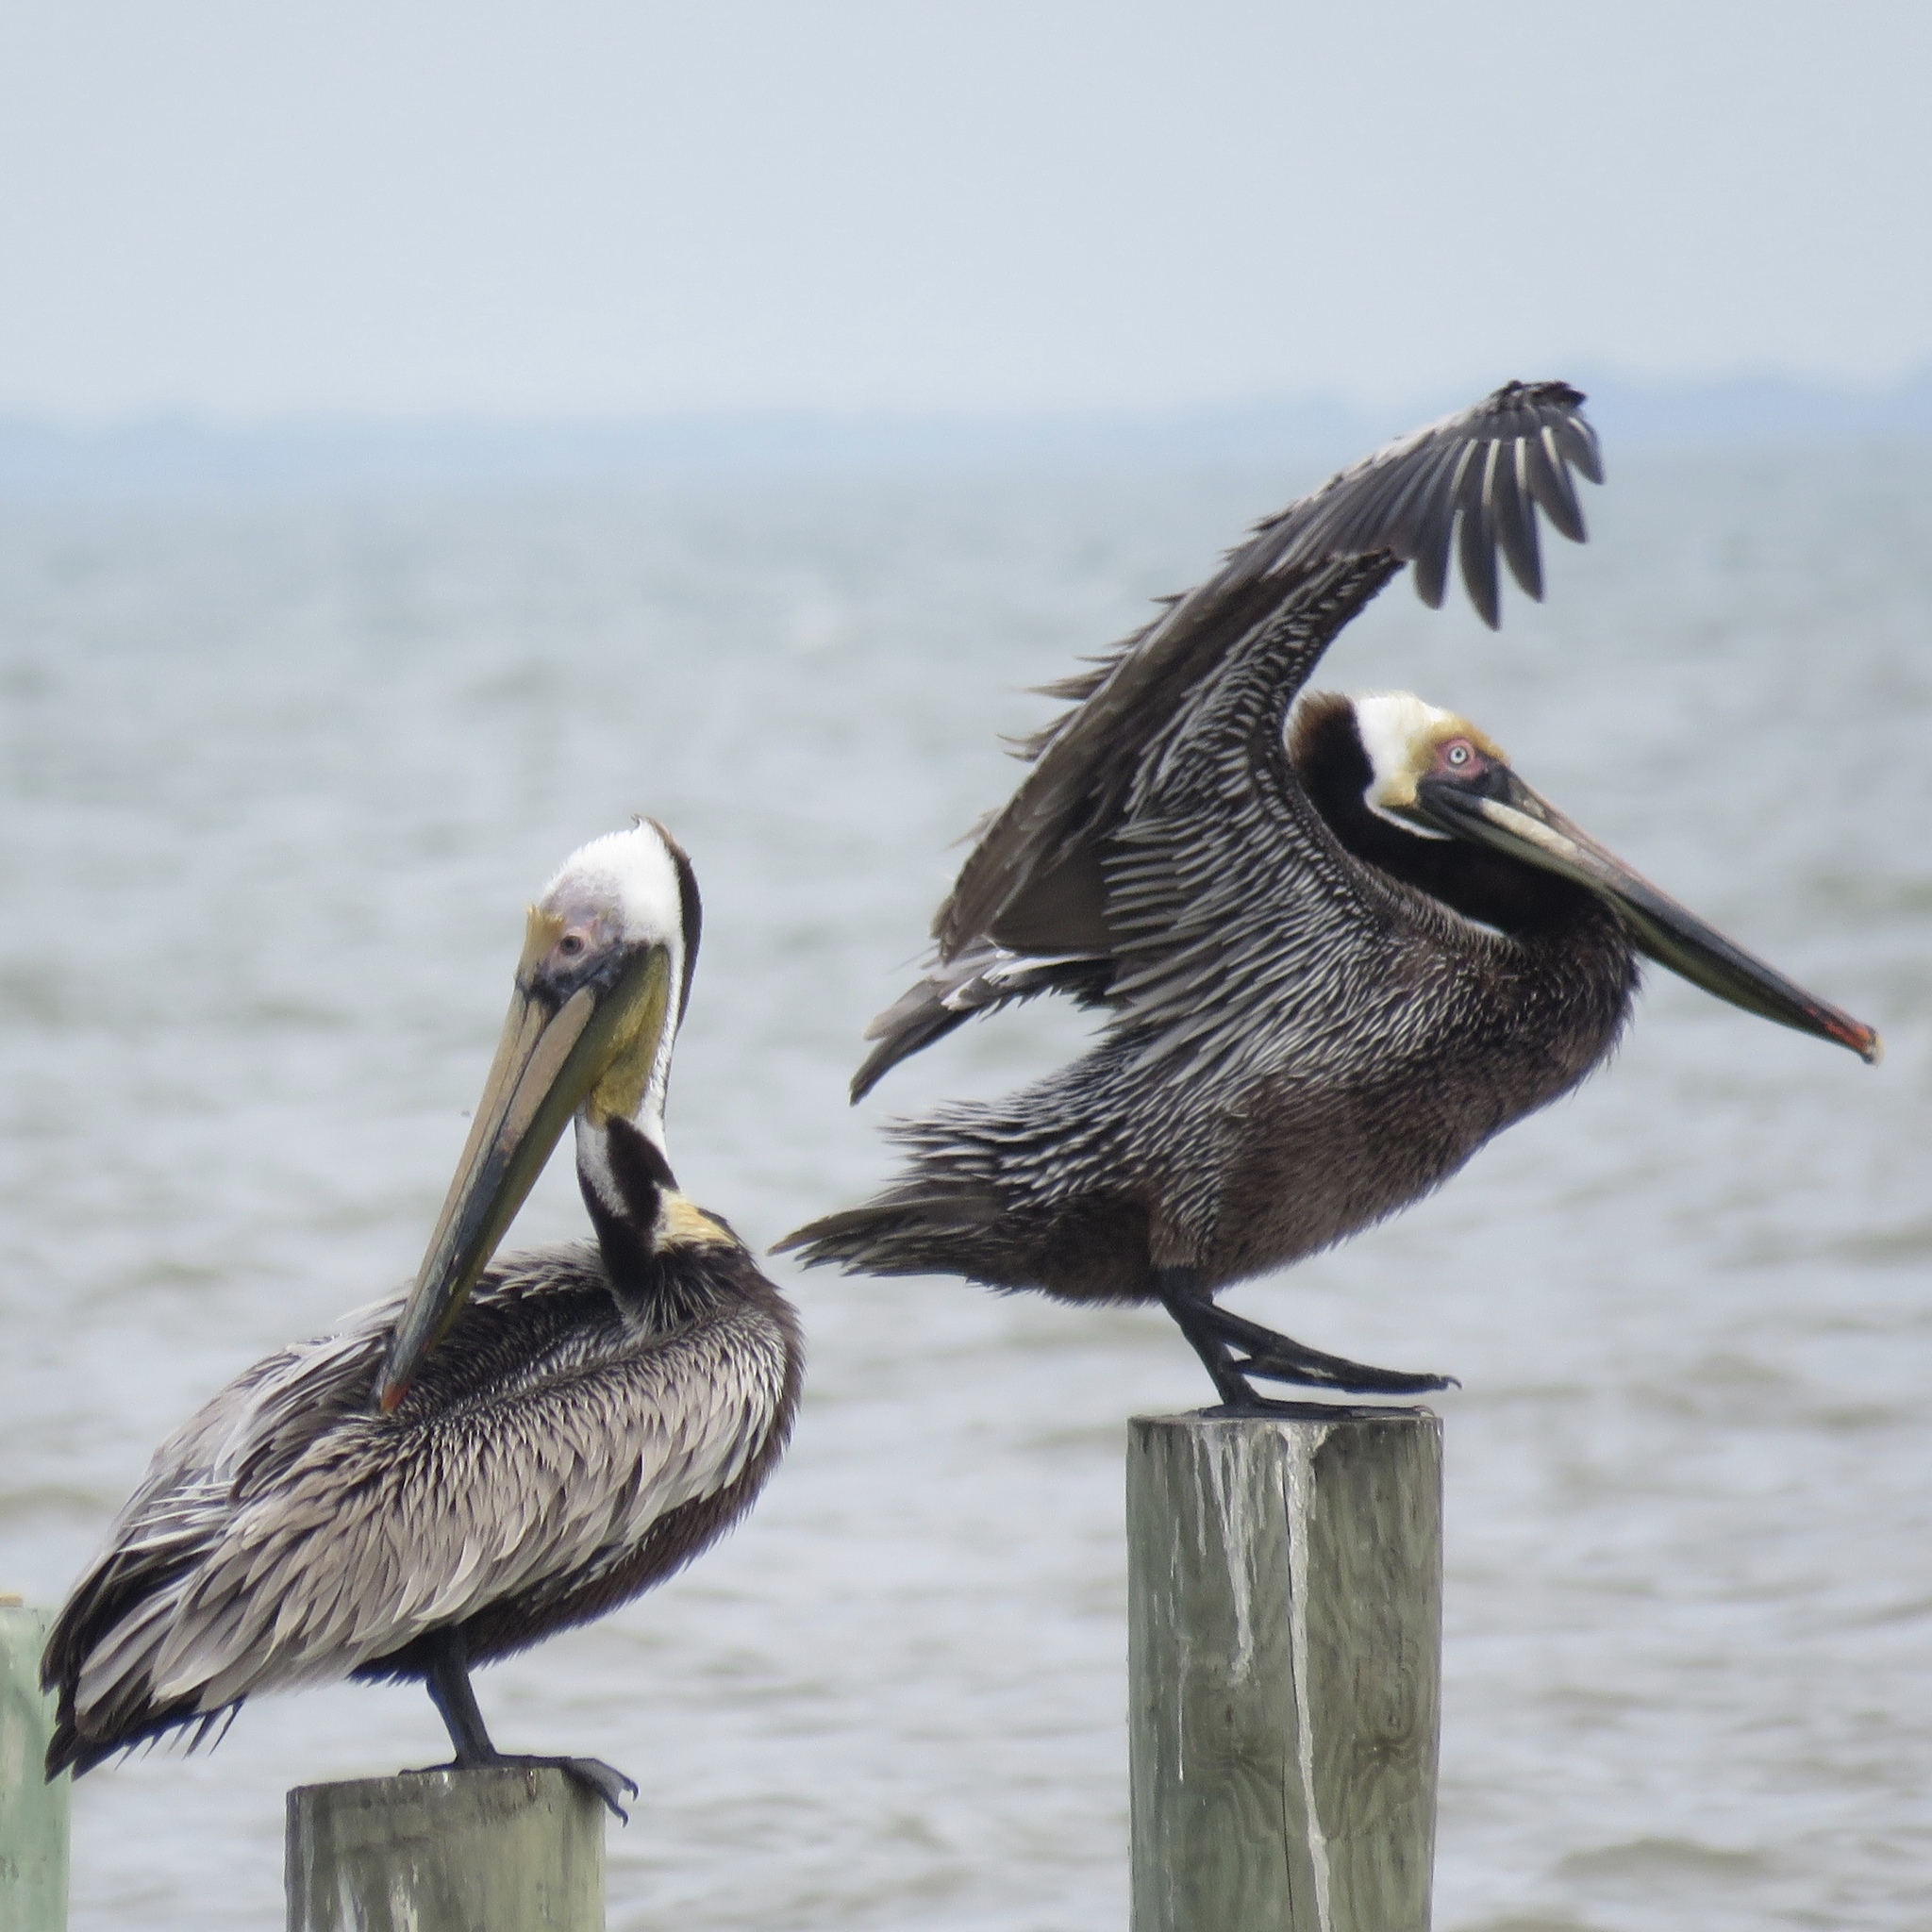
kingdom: Animalia
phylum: Chordata
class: Aves
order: Pelecaniformes
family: Pelecanidae
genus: Pelecanus
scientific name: Pelecanus occidentalis
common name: Brown pelican
